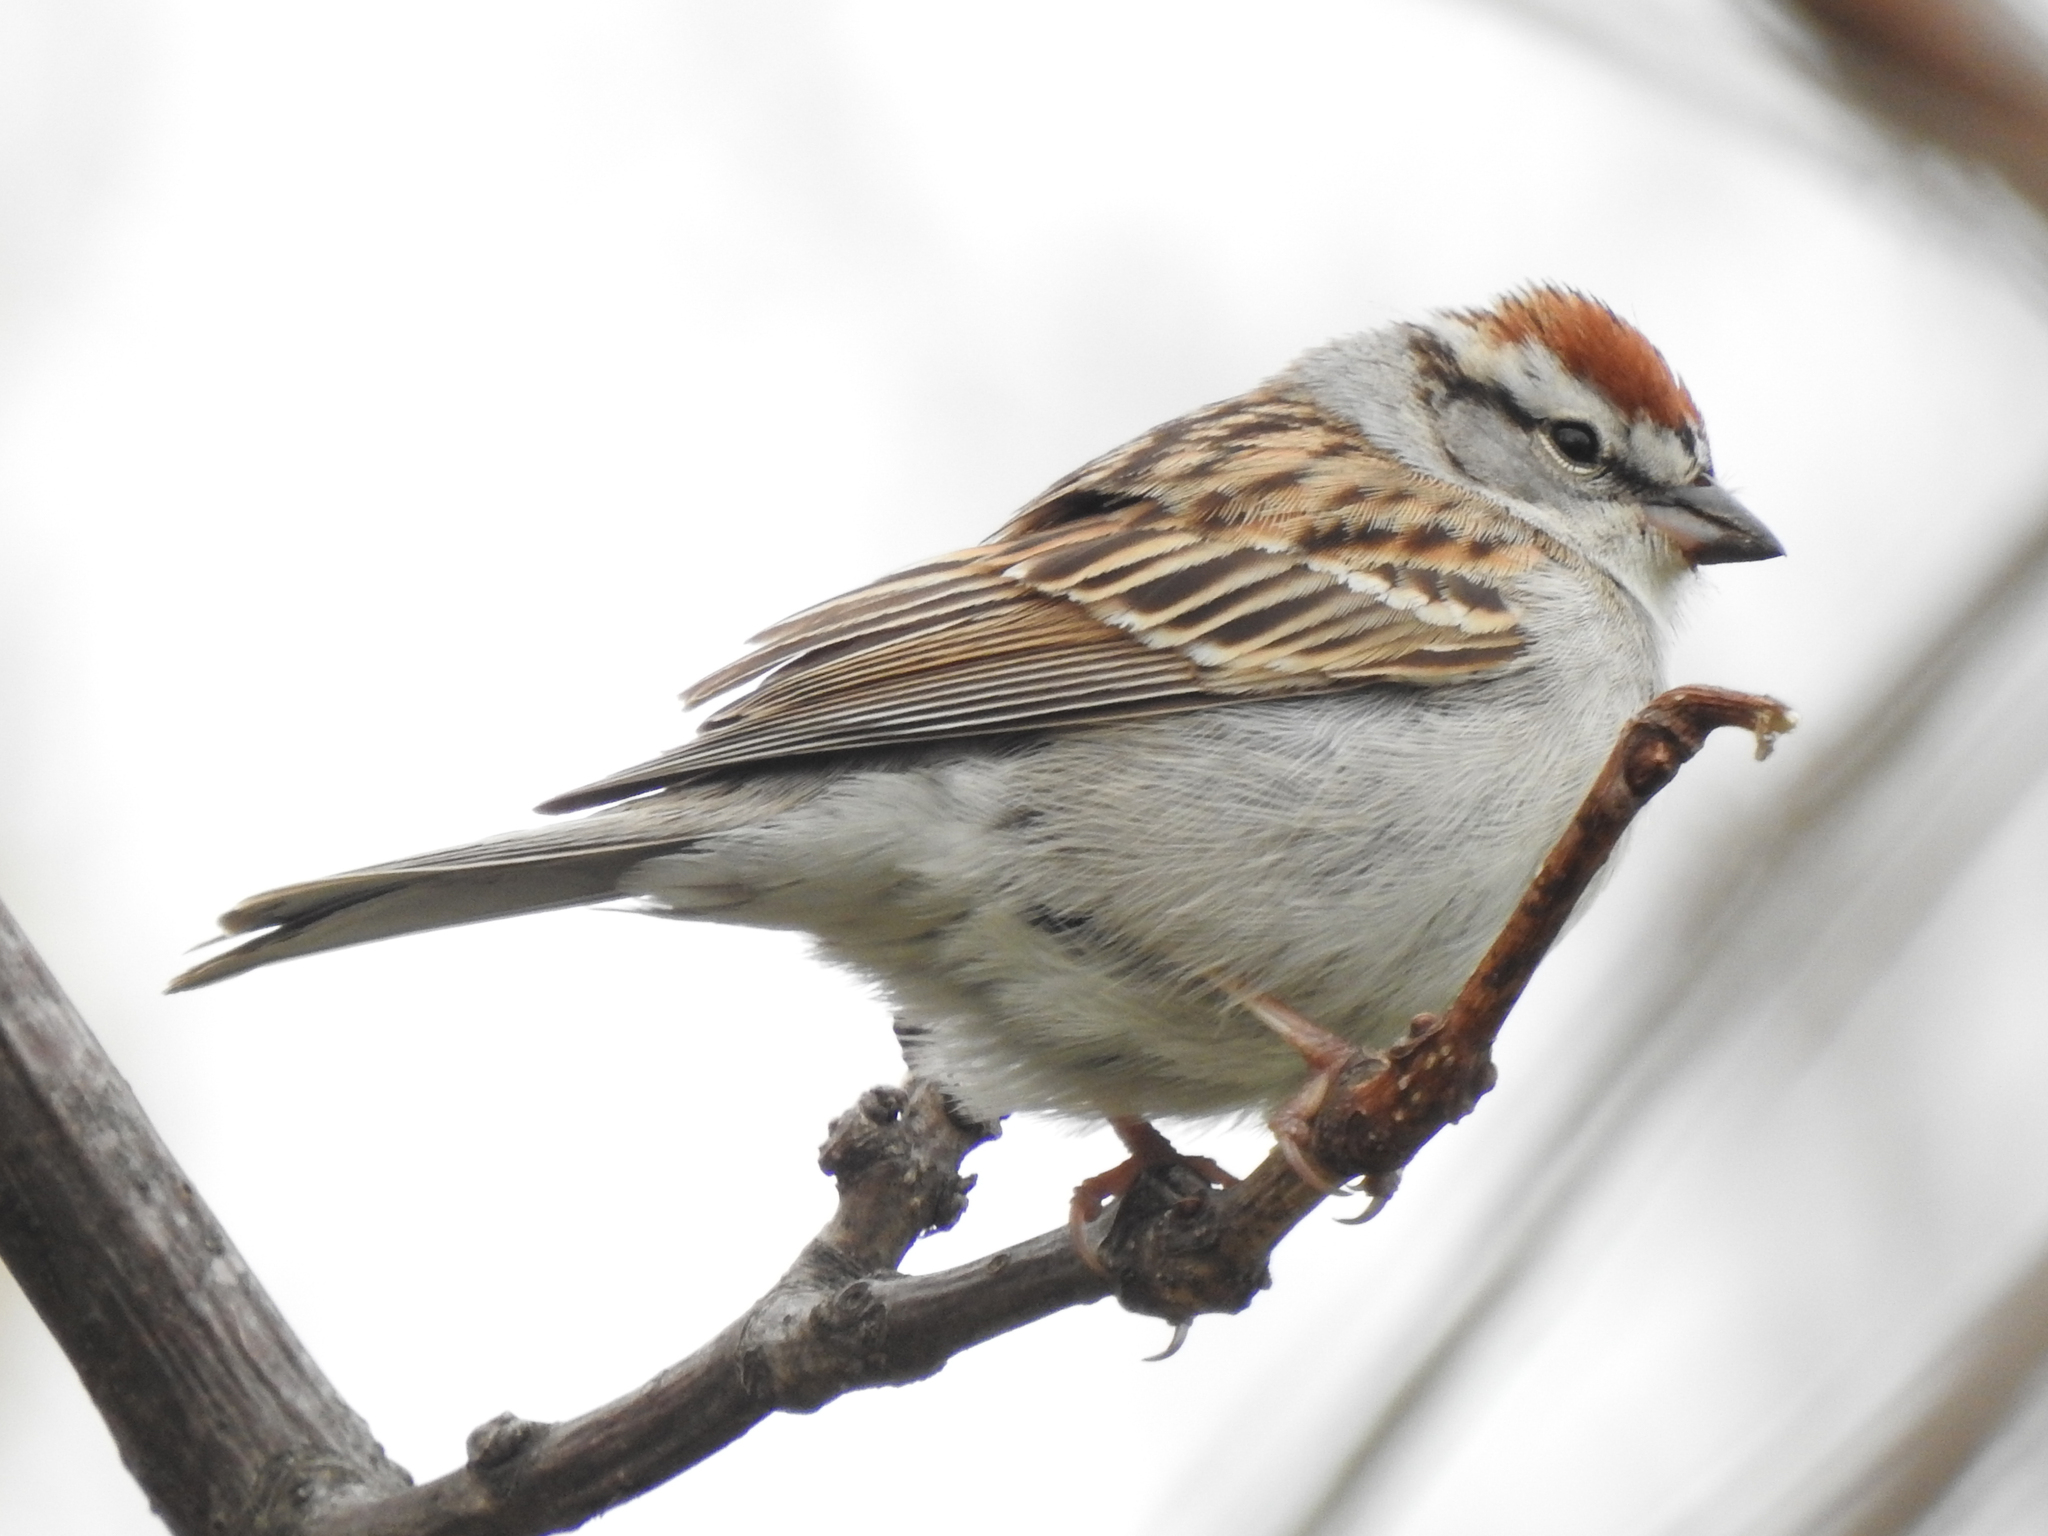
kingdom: Animalia
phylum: Chordata
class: Aves
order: Passeriformes
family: Passerellidae
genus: Spizella
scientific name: Spizella passerina
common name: Chipping sparrow
